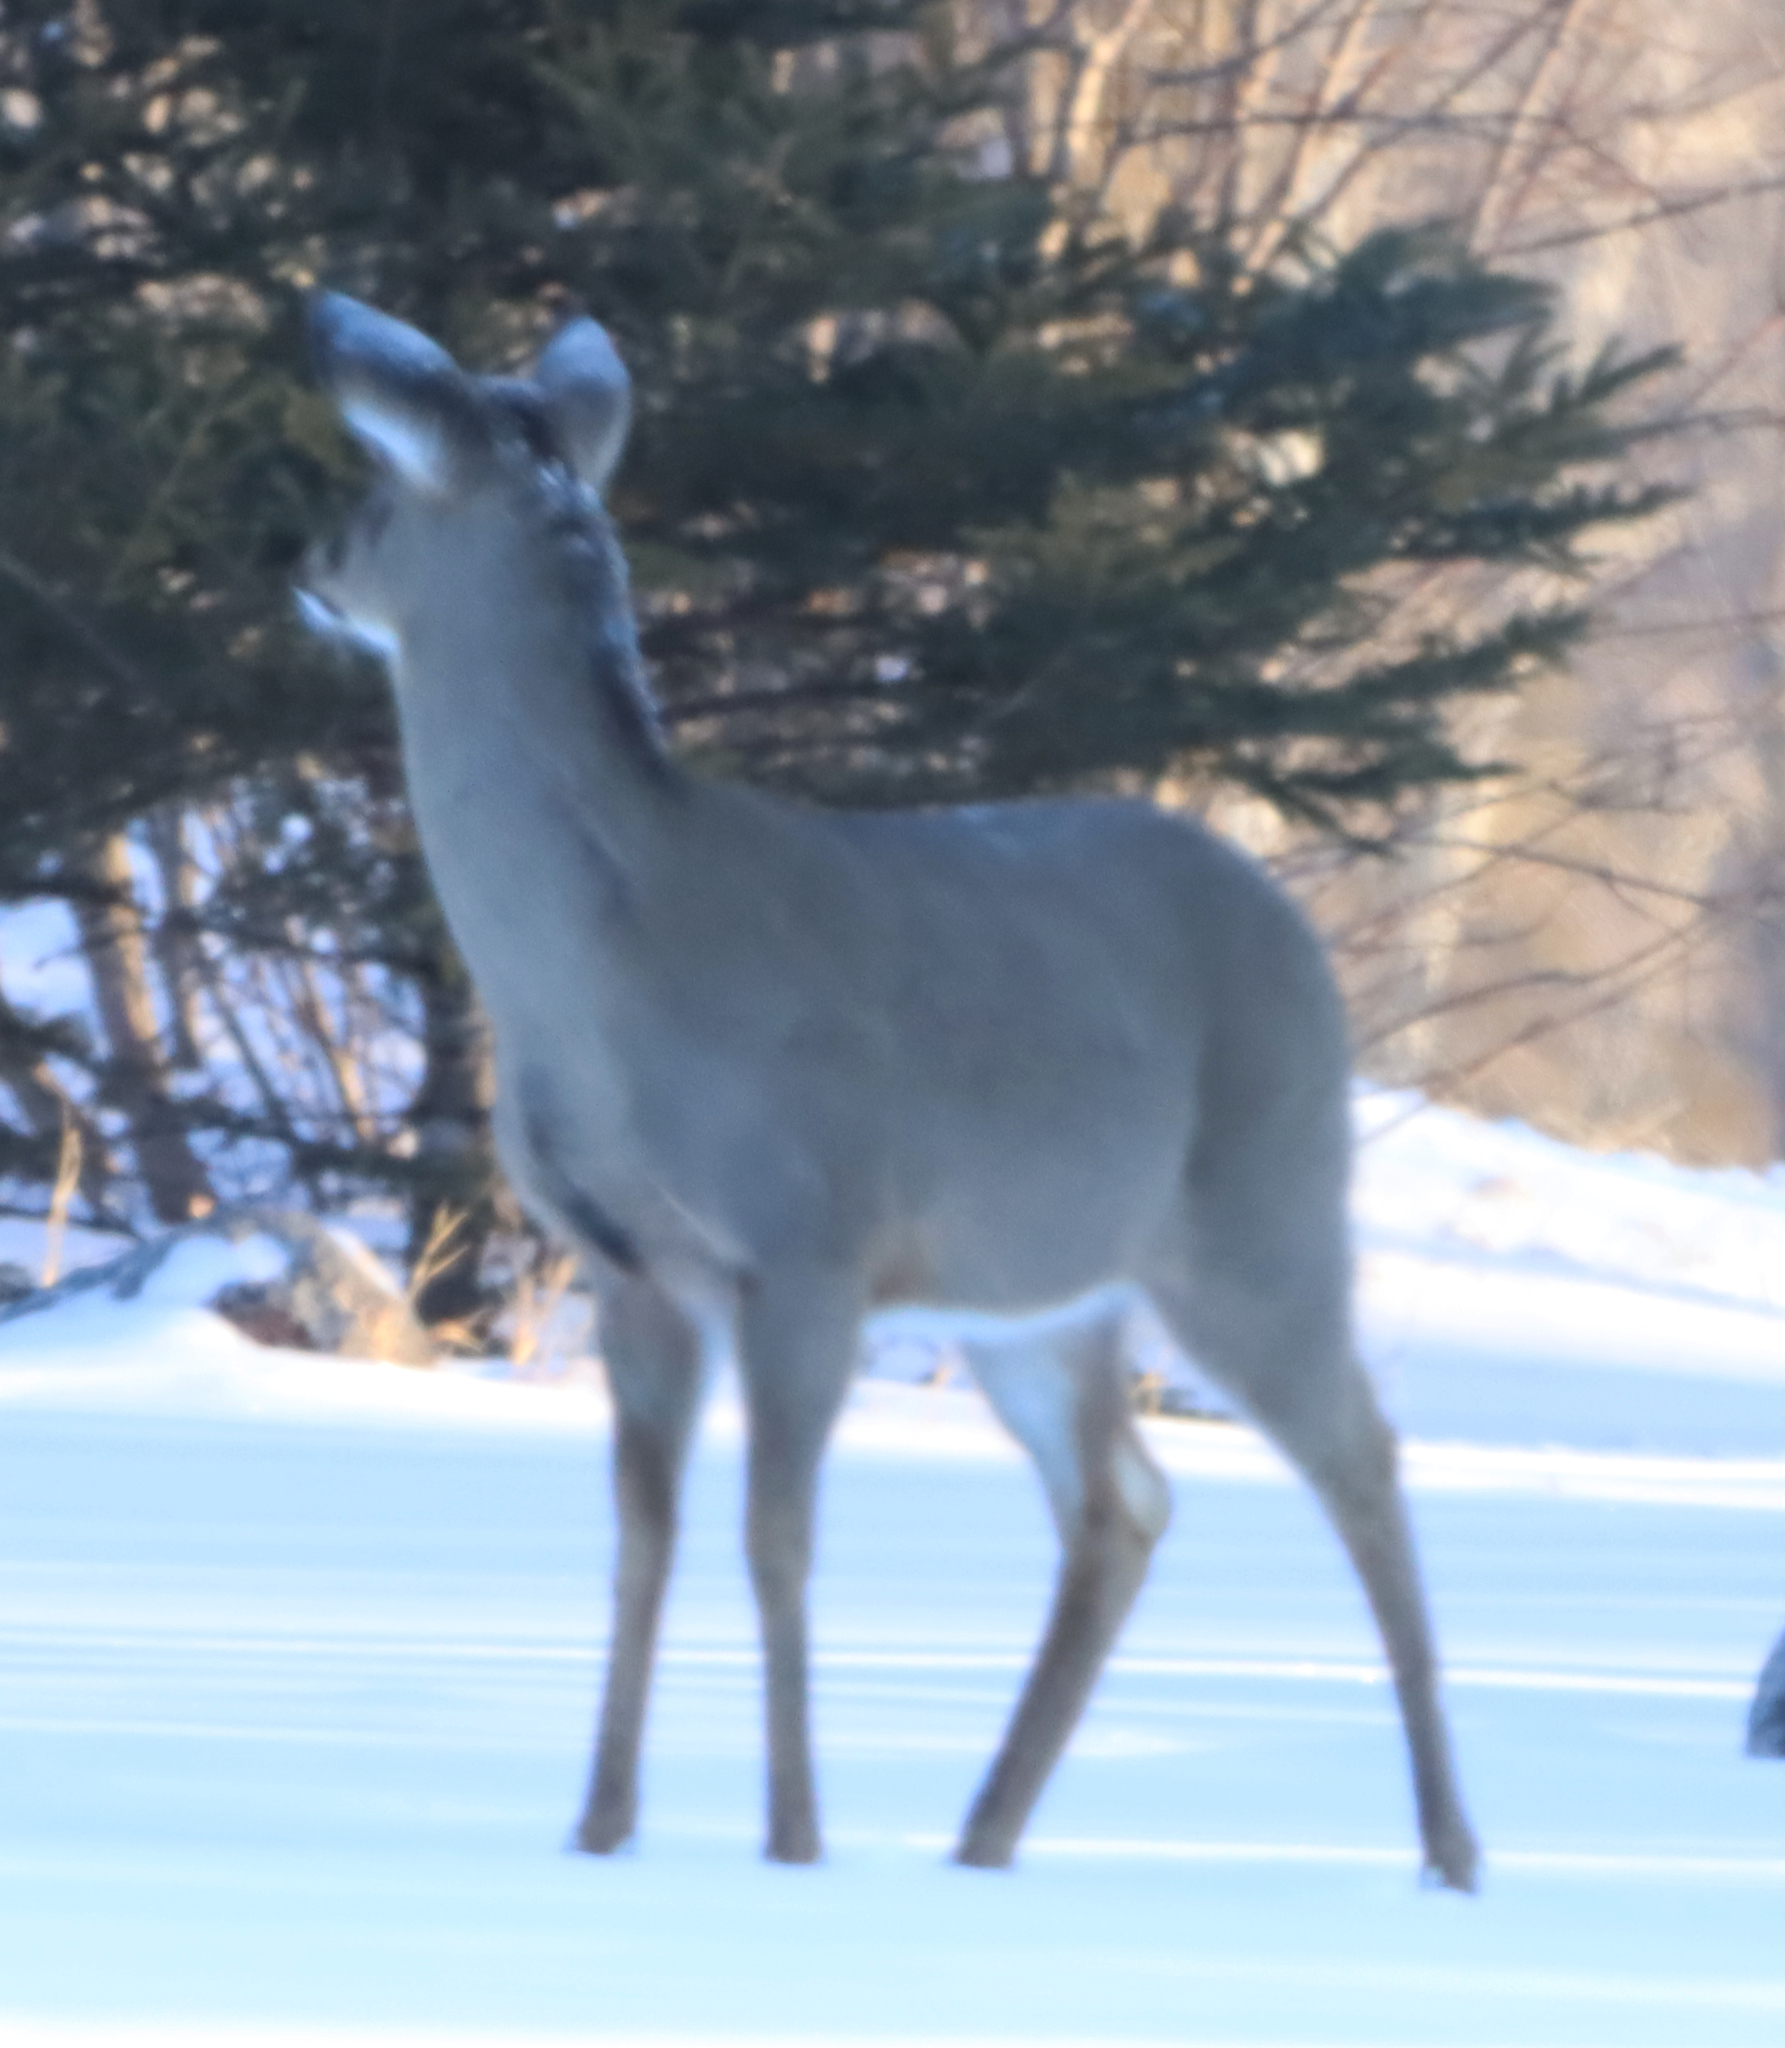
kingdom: Animalia
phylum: Chordata
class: Mammalia
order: Artiodactyla
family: Cervidae
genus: Odocoileus
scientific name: Odocoileus virginianus
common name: White-tailed deer
